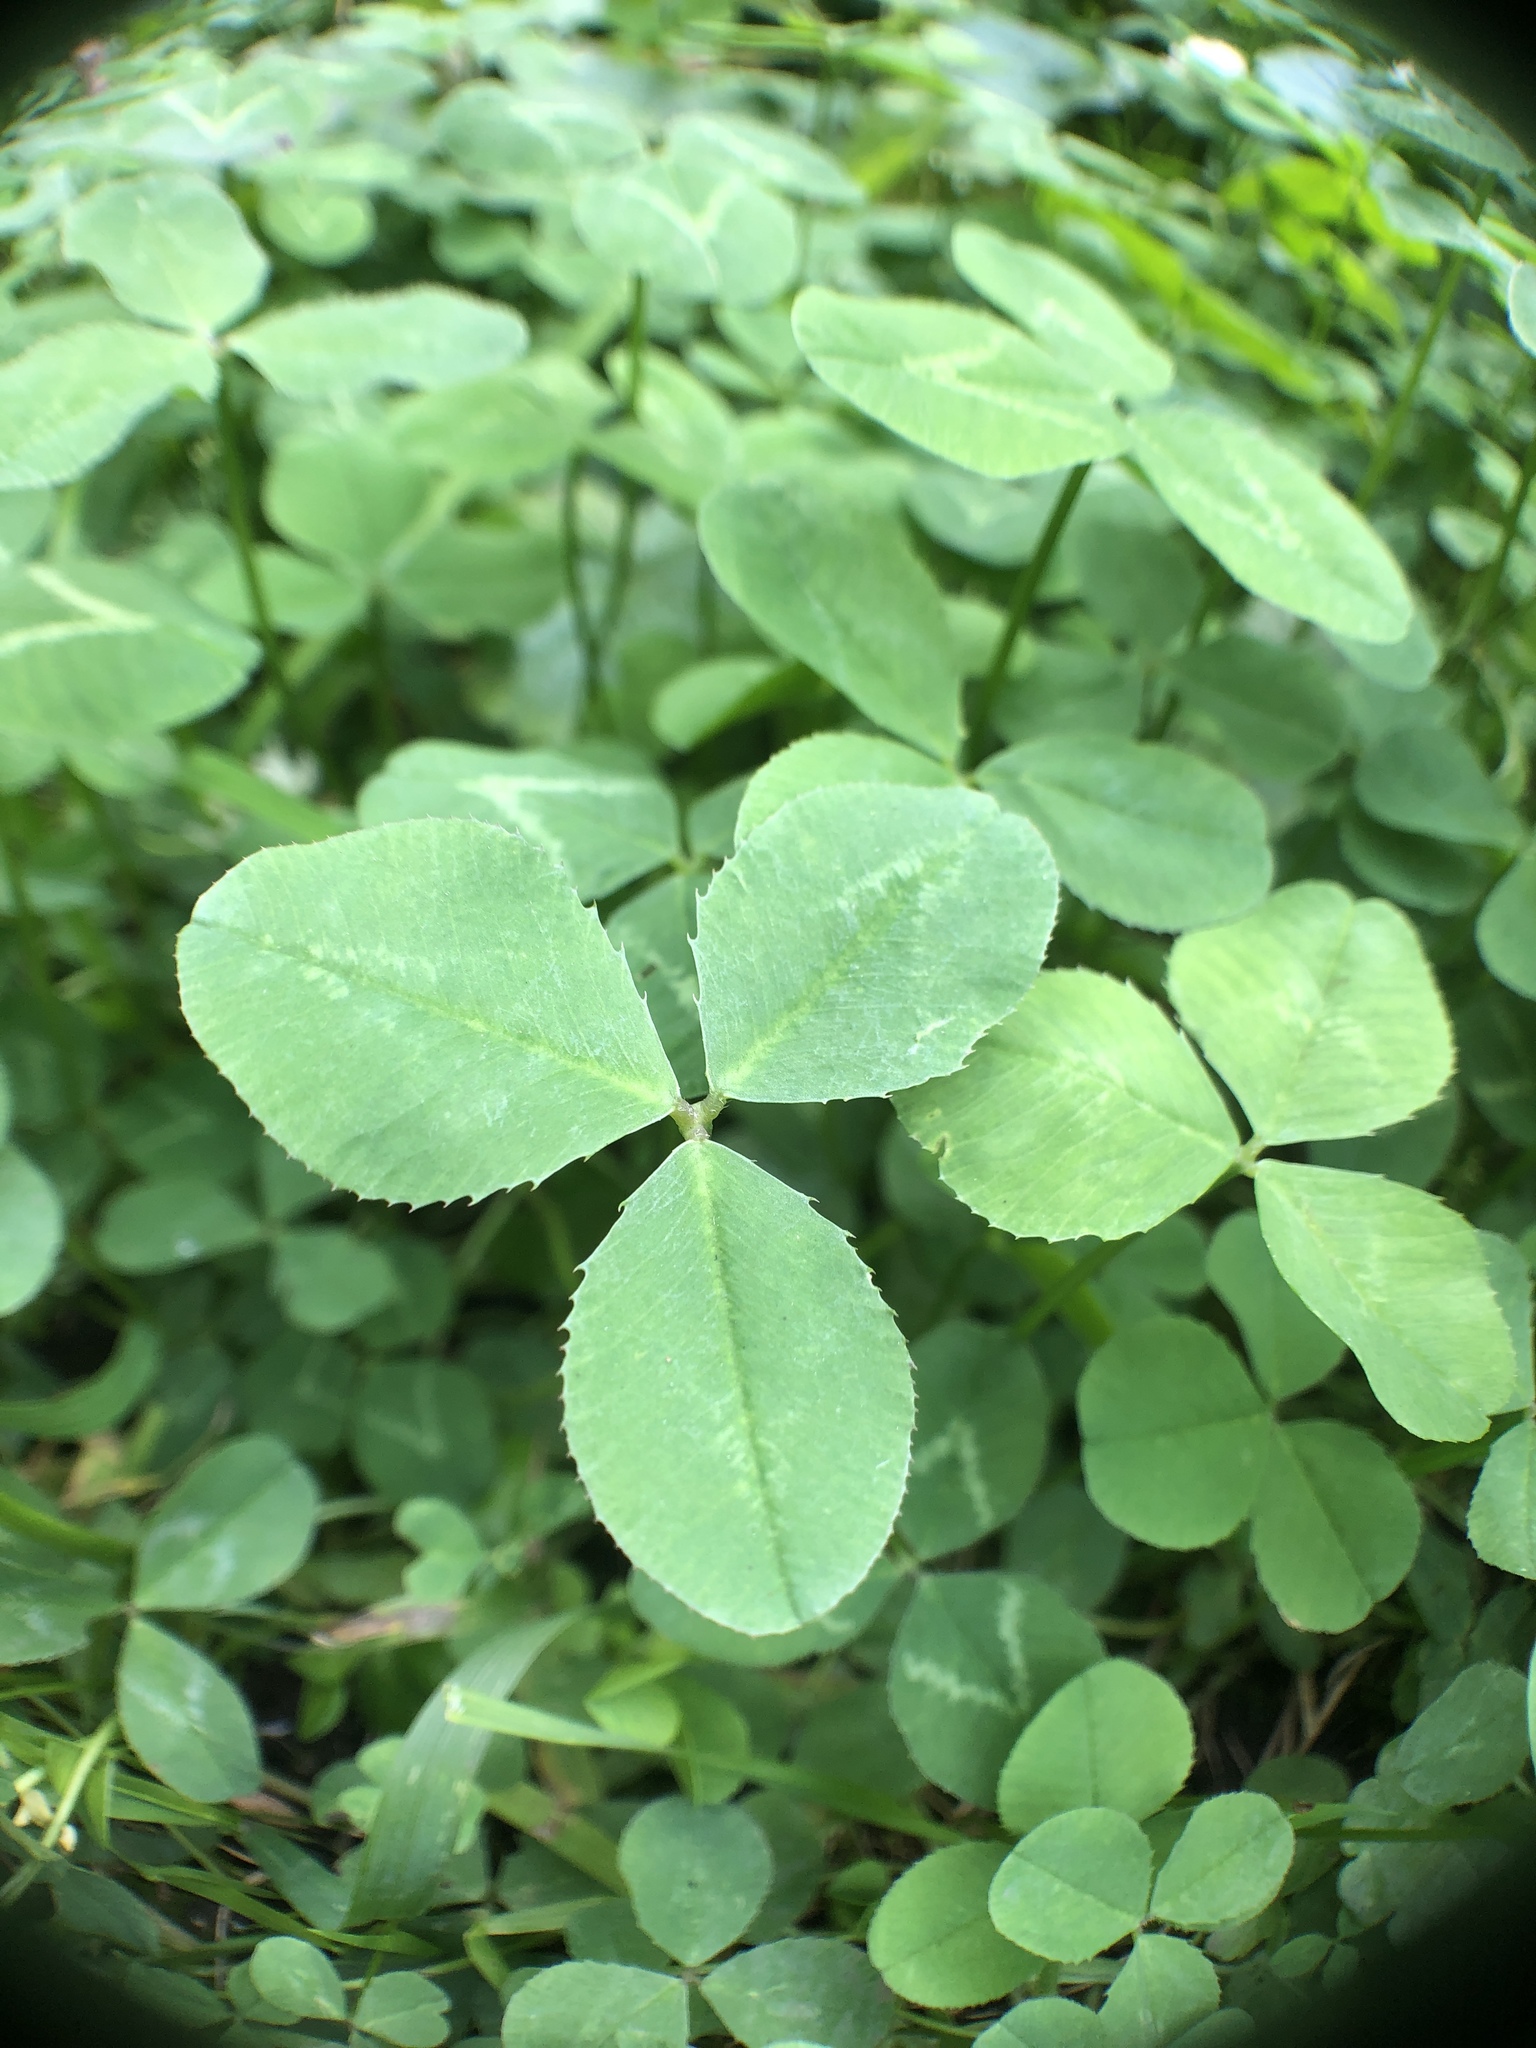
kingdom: Plantae
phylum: Tracheophyta
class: Magnoliopsida
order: Fabales
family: Fabaceae
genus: Trifolium
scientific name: Trifolium repens
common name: White clover
